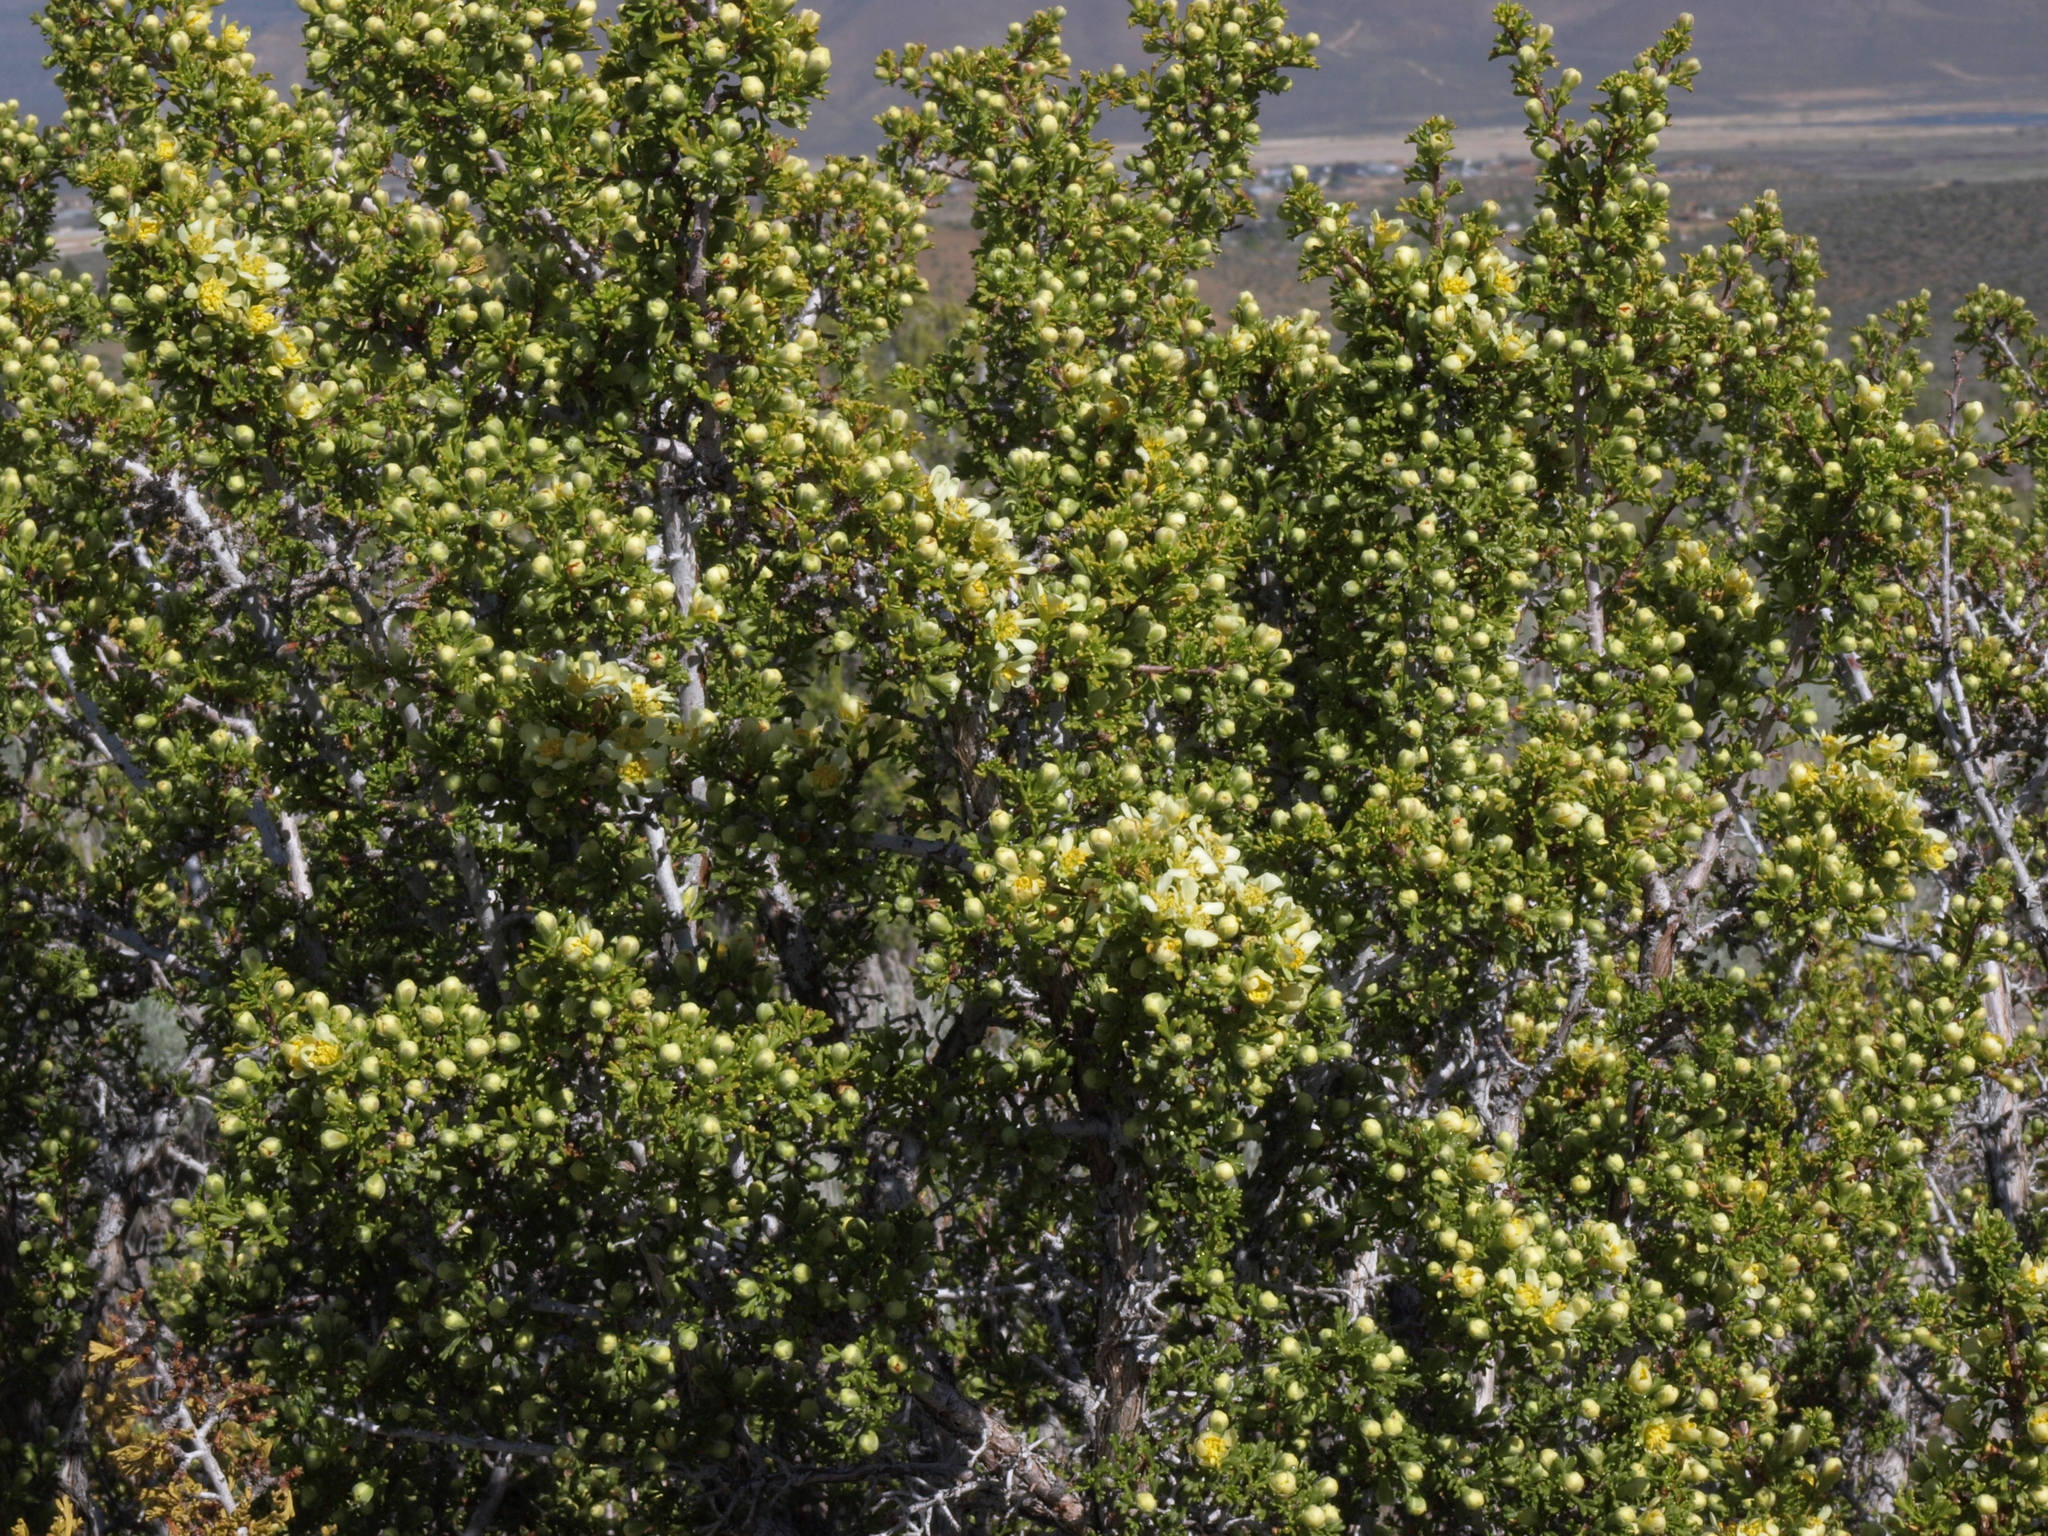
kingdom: Plantae
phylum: Tracheophyta
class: Magnoliopsida
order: Rosales
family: Rosaceae
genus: Purshia
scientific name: Purshia glandulosa
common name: Desert bitterbrush
